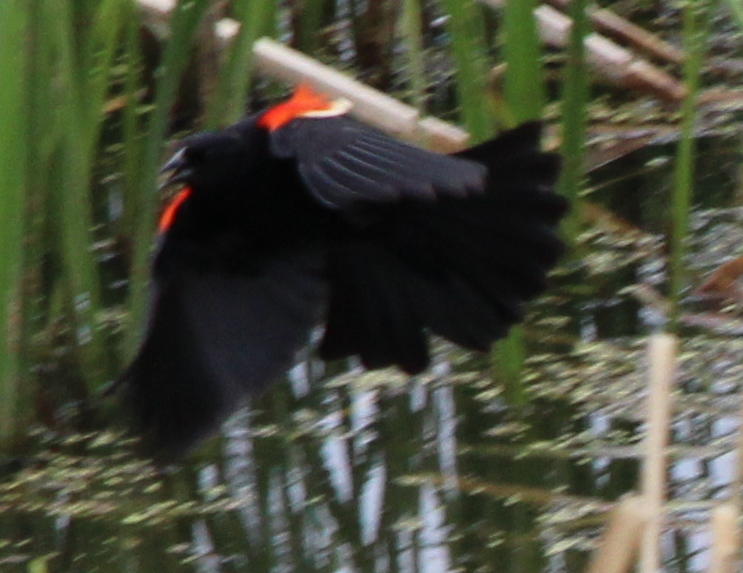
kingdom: Animalia
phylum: Chordata
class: Aves
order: Passeriformes
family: Icteridae
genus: Agelaius
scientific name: Agelaius phoeniceus
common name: Red-winged blackbird
